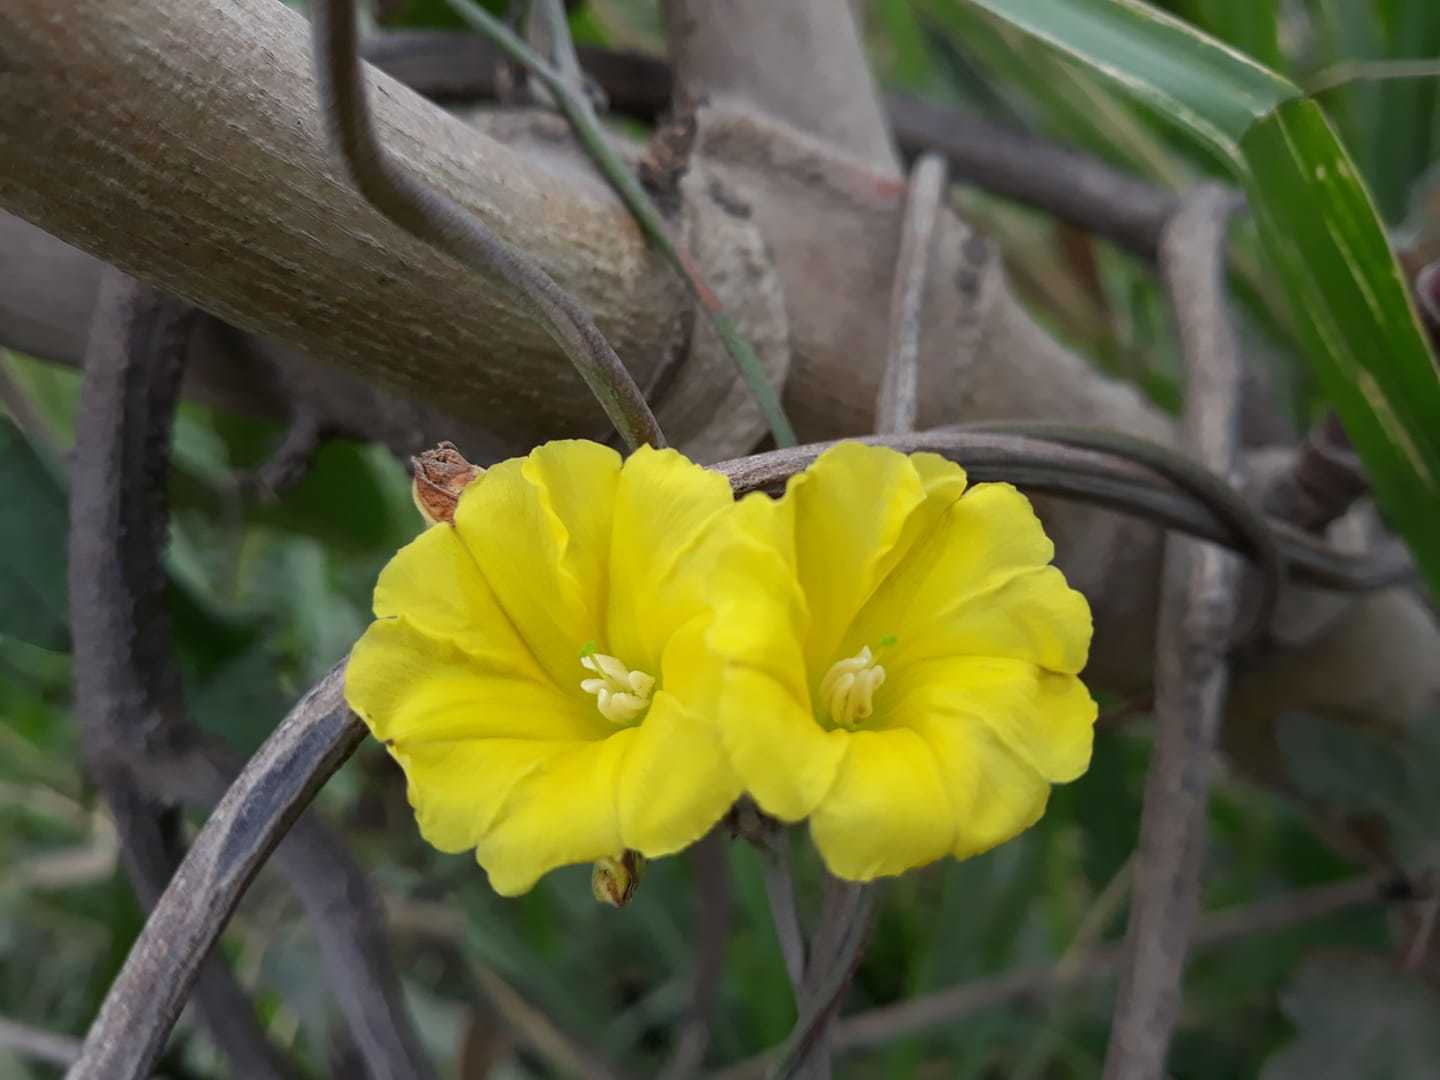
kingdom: Plantae
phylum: Tracheophyta
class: Magnoliopsida
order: Solanales
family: Convolvulaceae
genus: Camonea
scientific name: Camonea umbellata
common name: Hogvine
